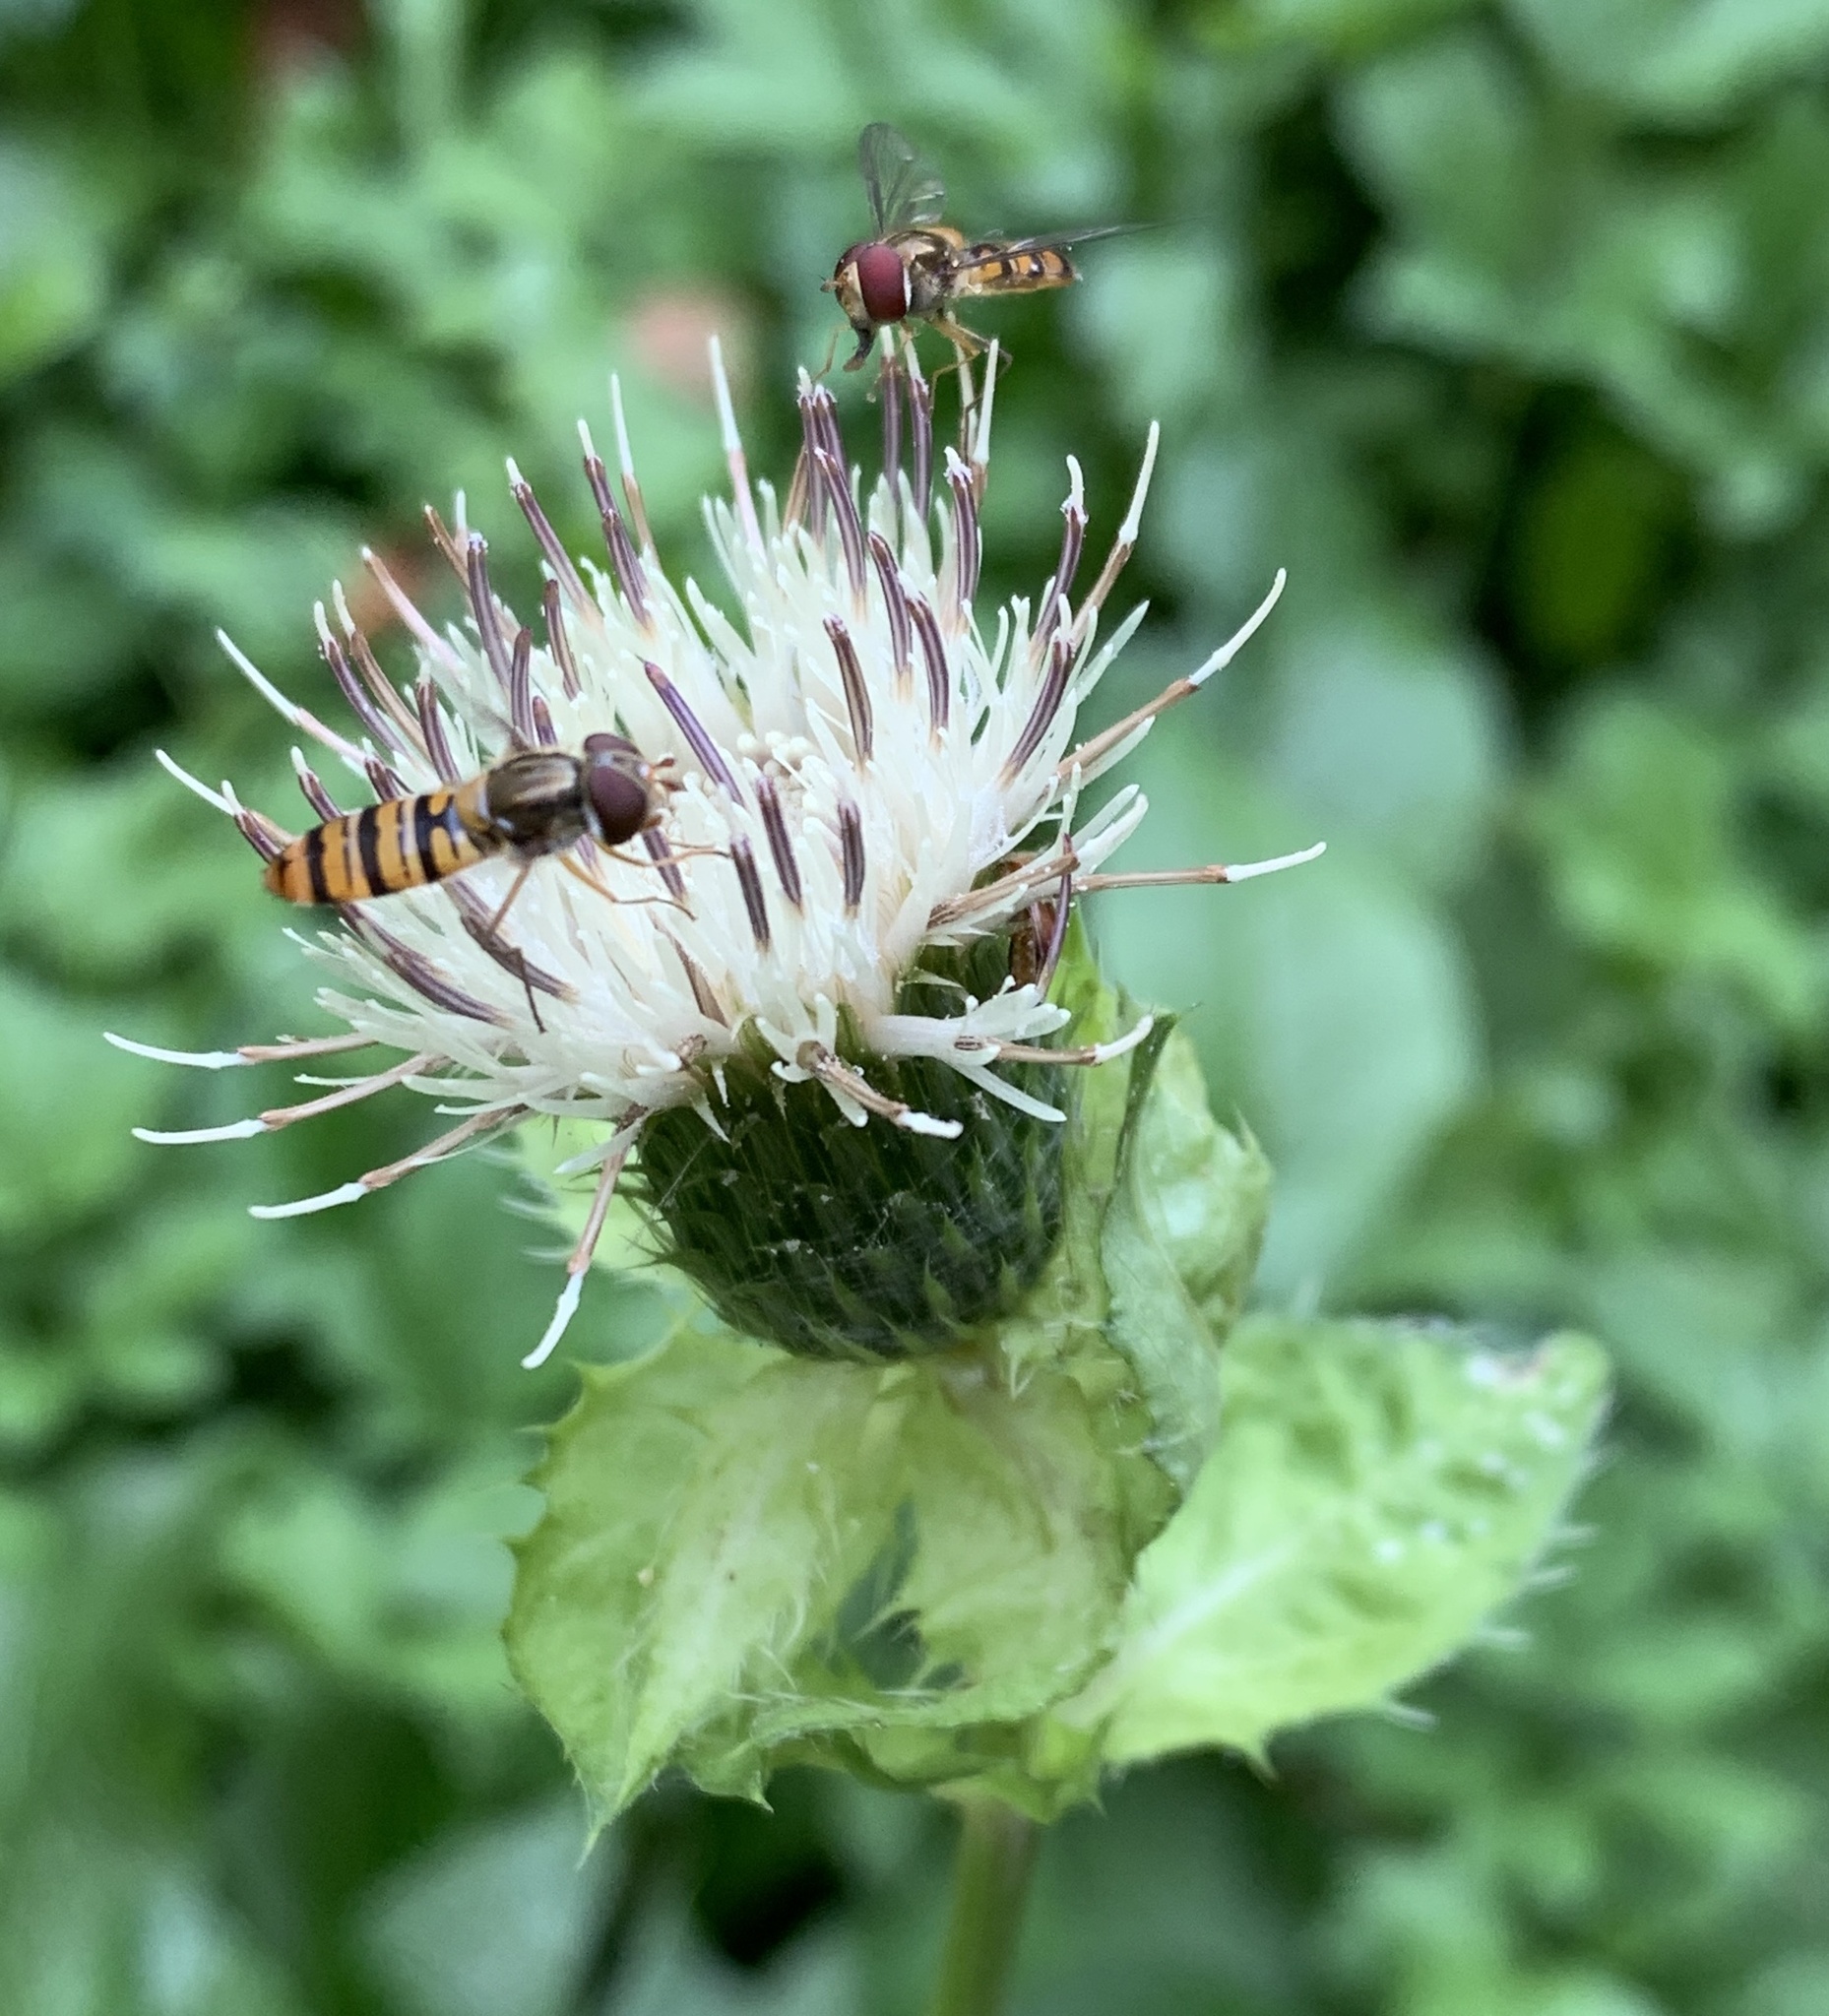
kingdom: Animalia
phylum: Arthropoda
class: Insecta
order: Diptera
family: Syrphidae
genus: Episyrphus
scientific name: Episyrphus balteatus
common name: Marmalade hoverfly
